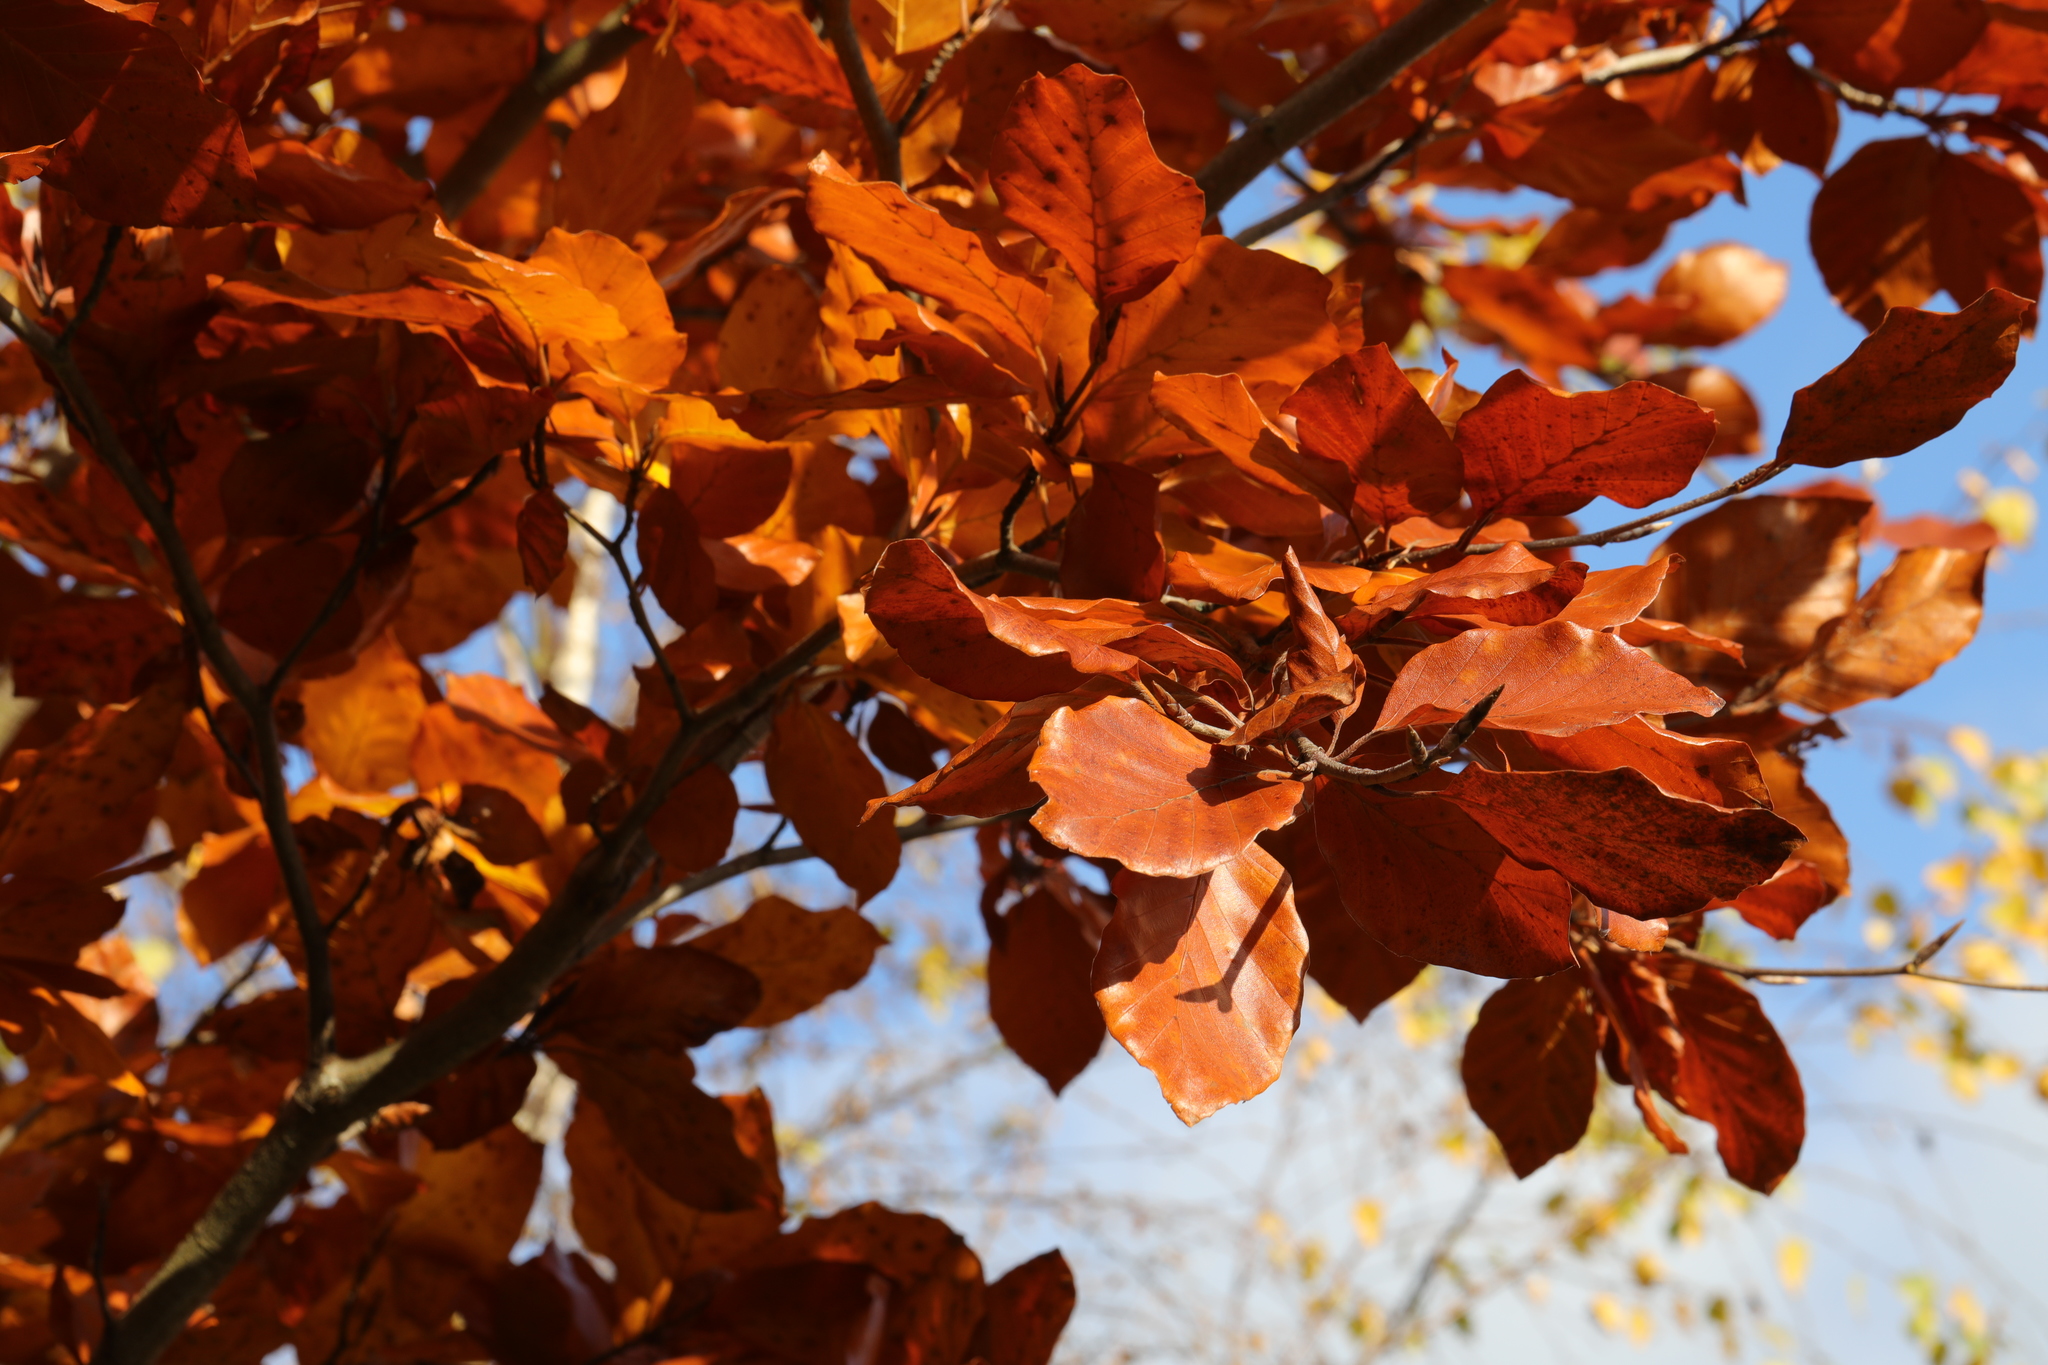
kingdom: Plantae
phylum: Tracheophyta
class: Magnoliopsida
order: Fagales
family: Fagaceae
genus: Fagus
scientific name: Fagus sylvatica
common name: Beech
